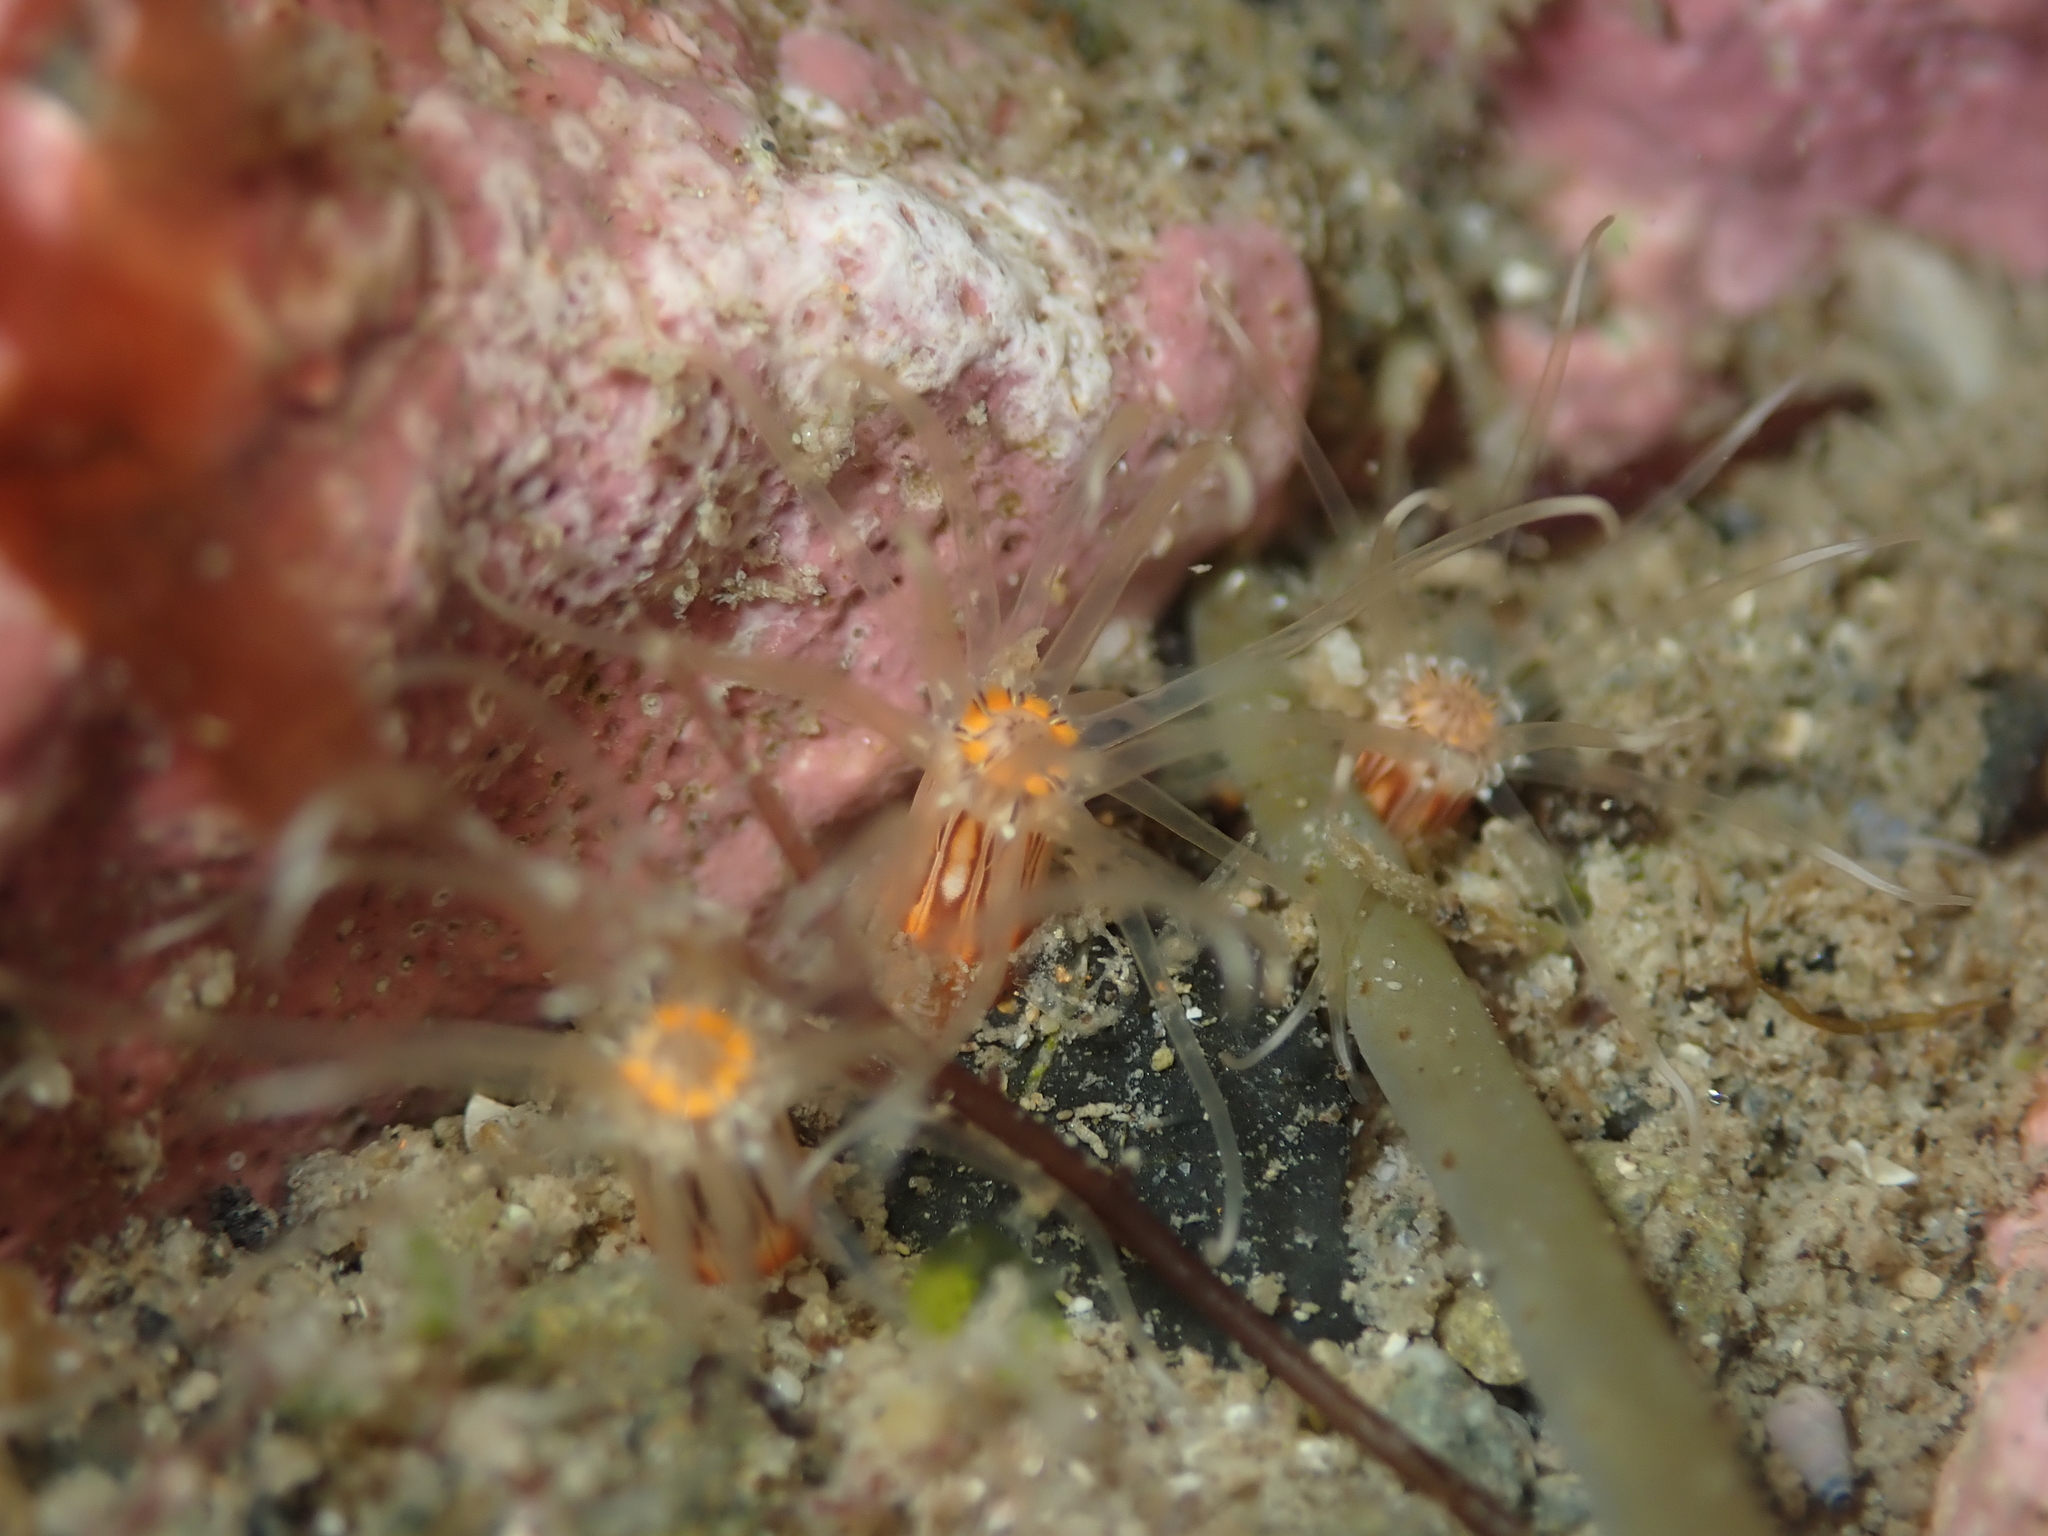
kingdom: Animalia
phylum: Cnidaria
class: Anthozoa
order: Actiniaria
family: Edwardsiidae
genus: Edwardsia
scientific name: Edwardsia neozelanica
